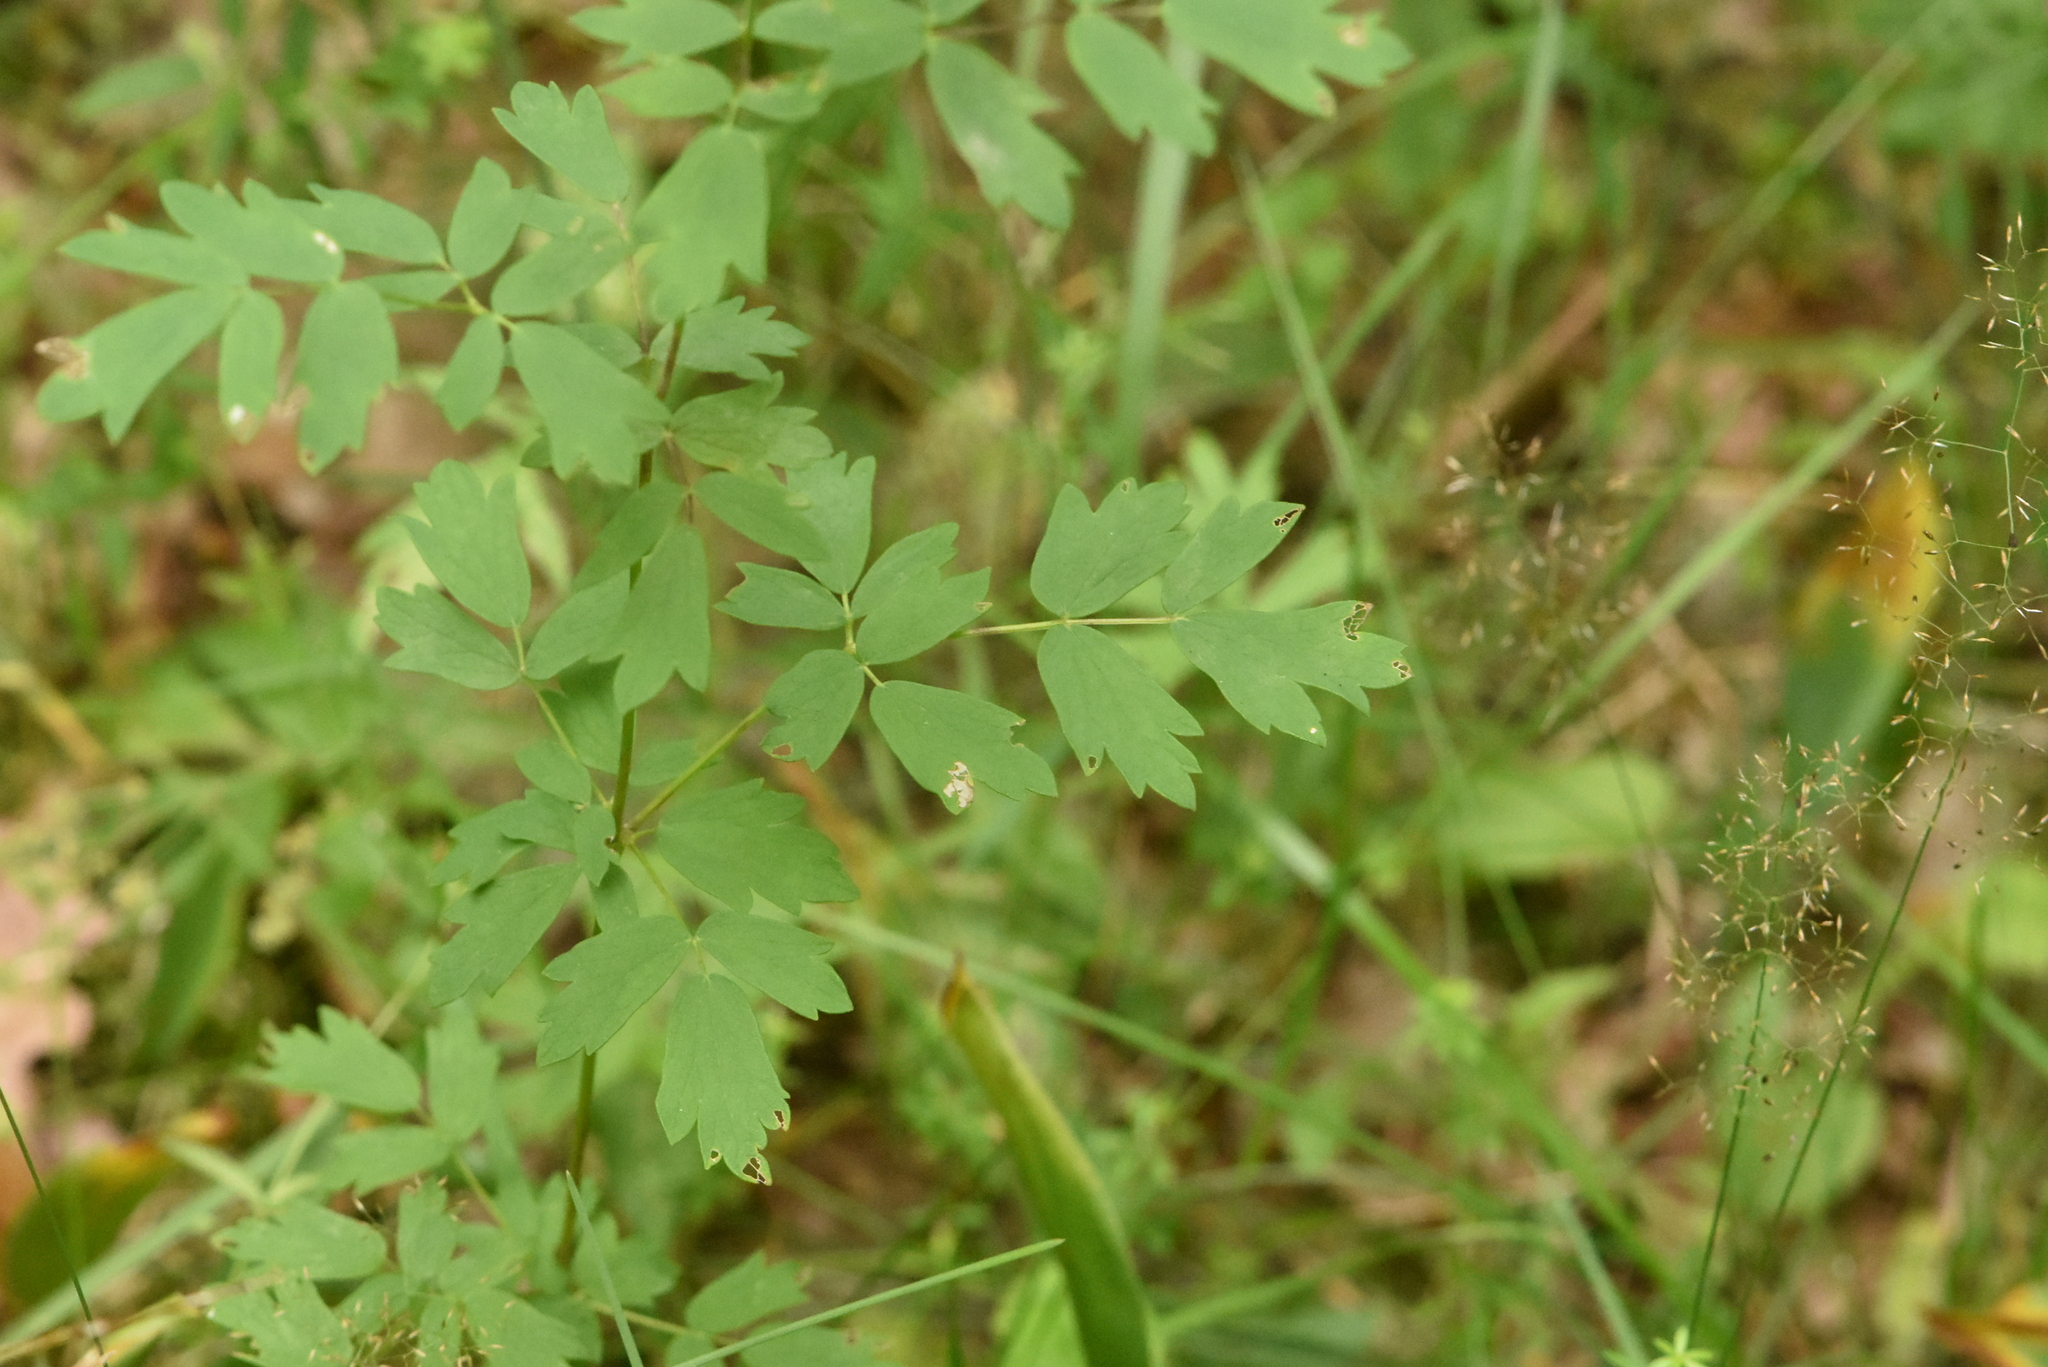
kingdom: Plantae
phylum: Tracheophyta
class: Magnoliopsida
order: Ranunculales
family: Ranunculaceae
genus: Thalictrum
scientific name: Thalictrum simplex
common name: Small meadow-rue
